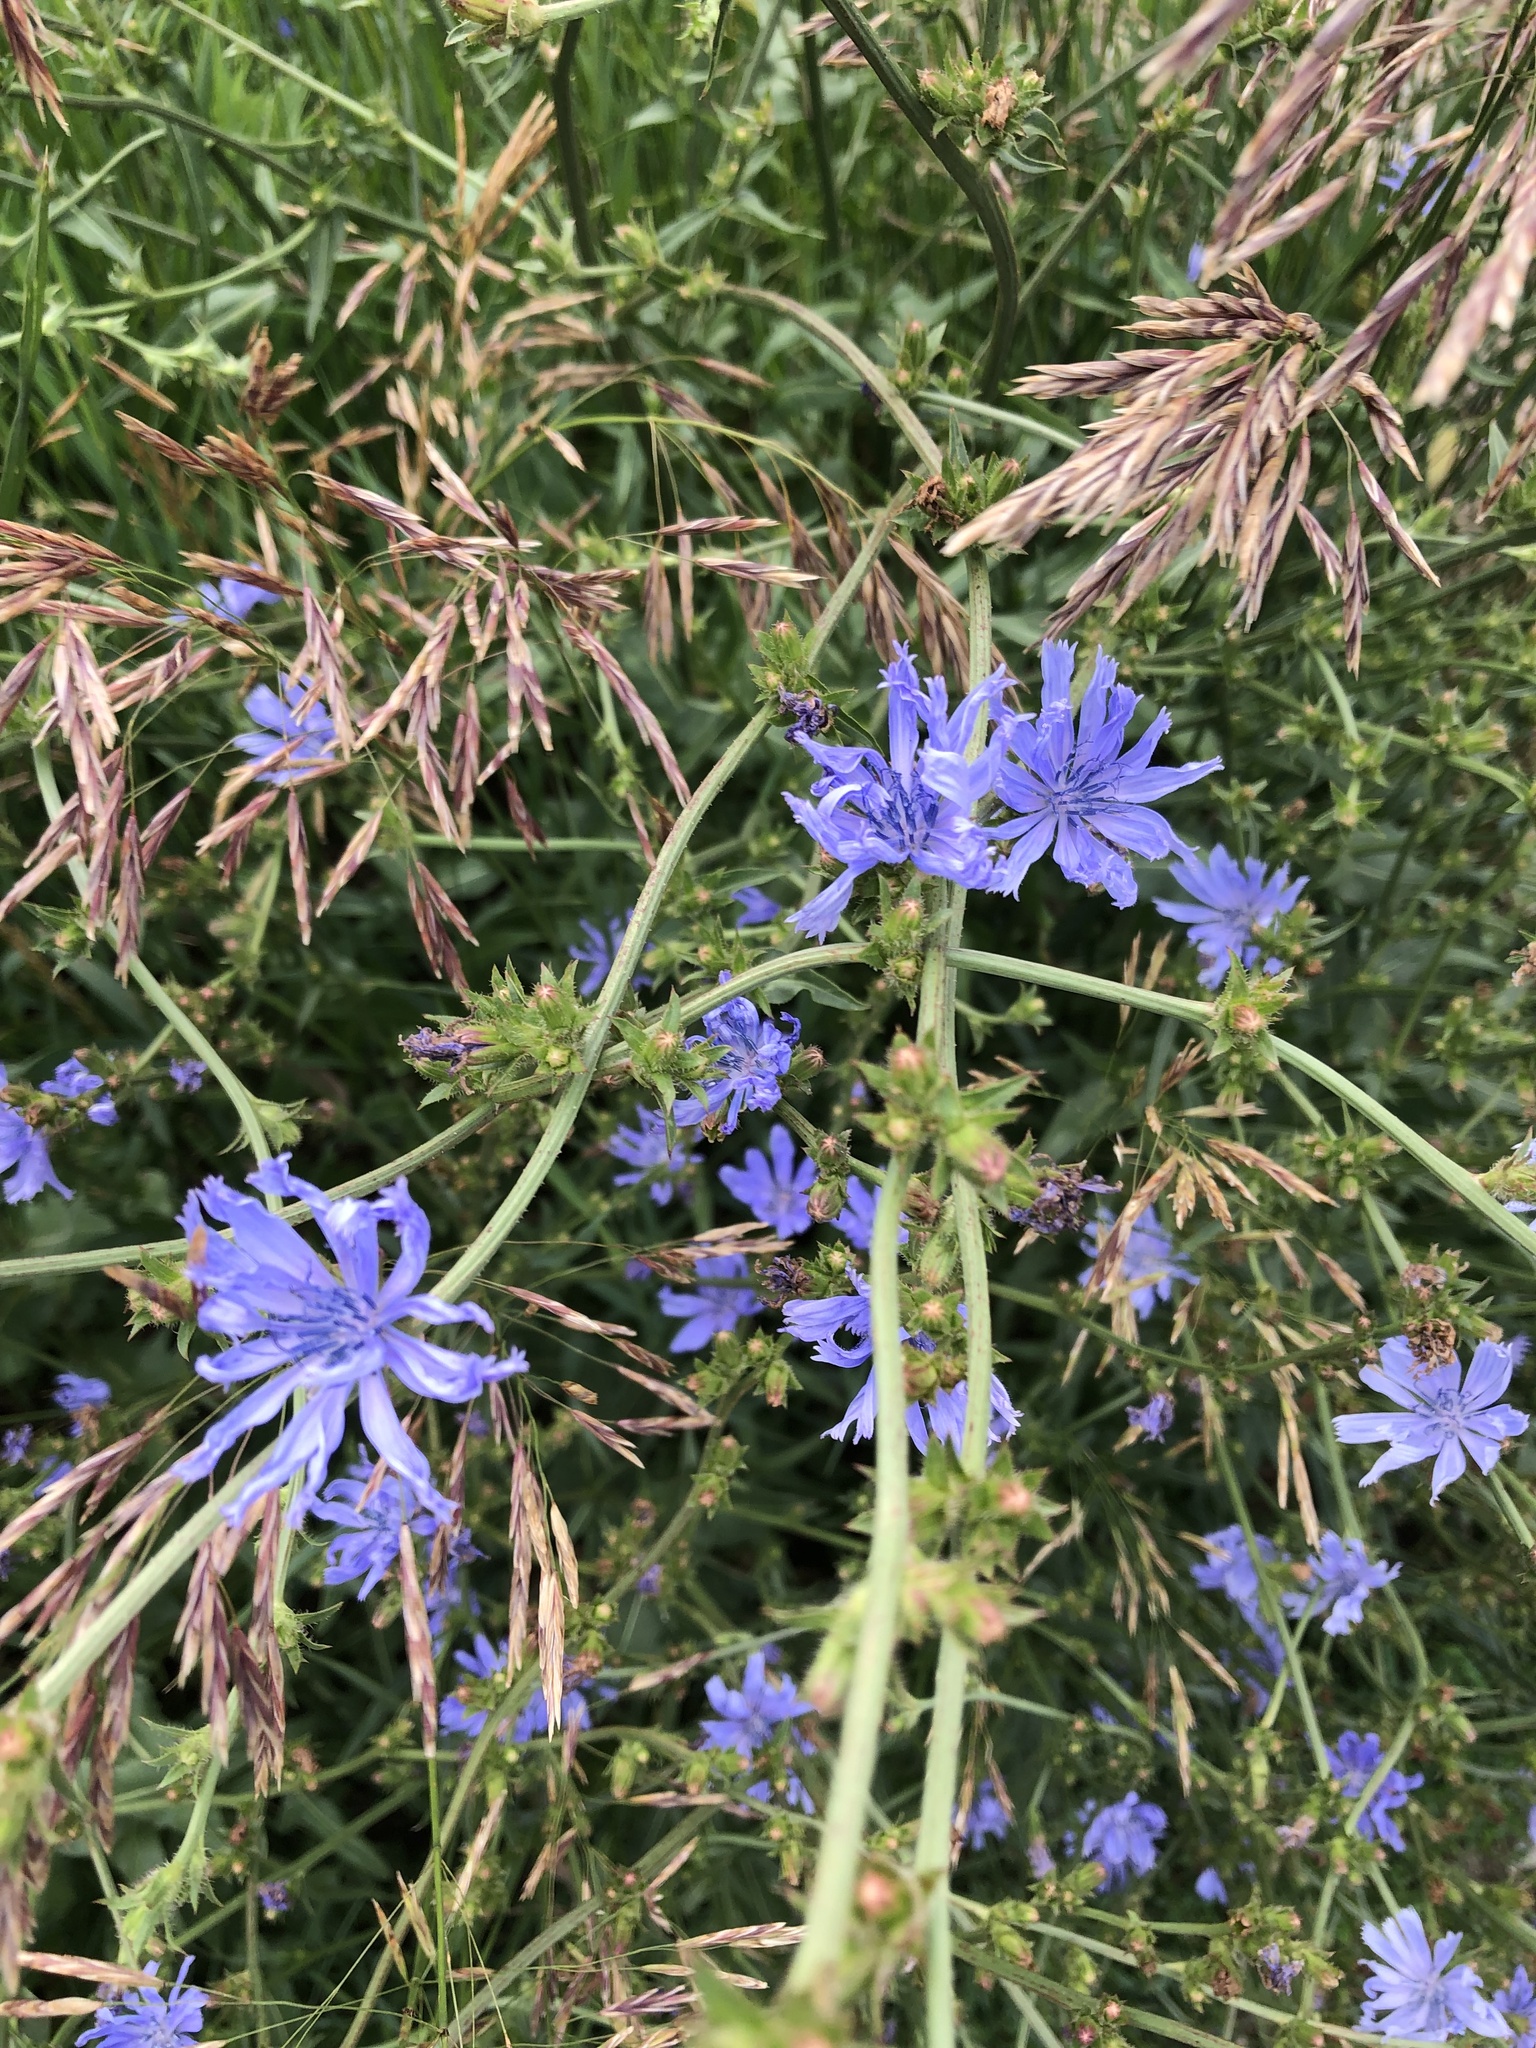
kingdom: Plantae
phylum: Tracheophyta
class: Magnoliopsida
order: Asterales
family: Asteraceae
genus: Cichorium
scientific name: Cichorium intybus
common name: Chicory
